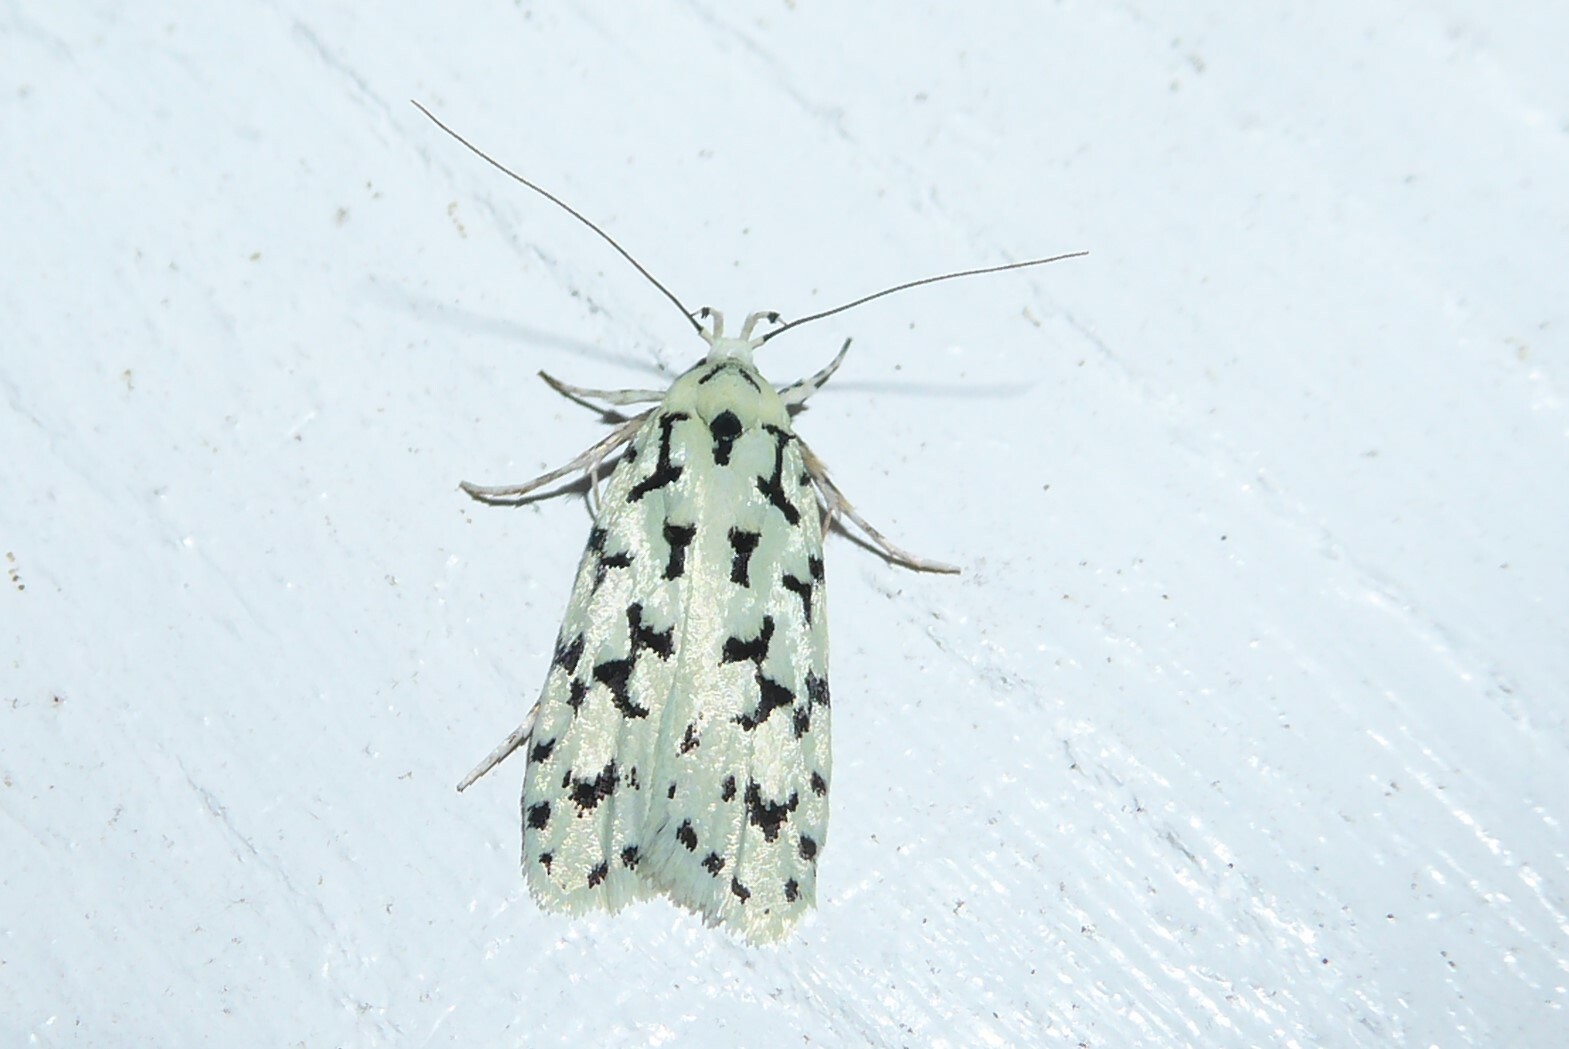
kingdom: Animalia
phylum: Arthropoda
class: Insecta
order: Lepidoptera
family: Oecophoridae
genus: Izatha
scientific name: Izatha huttoni
